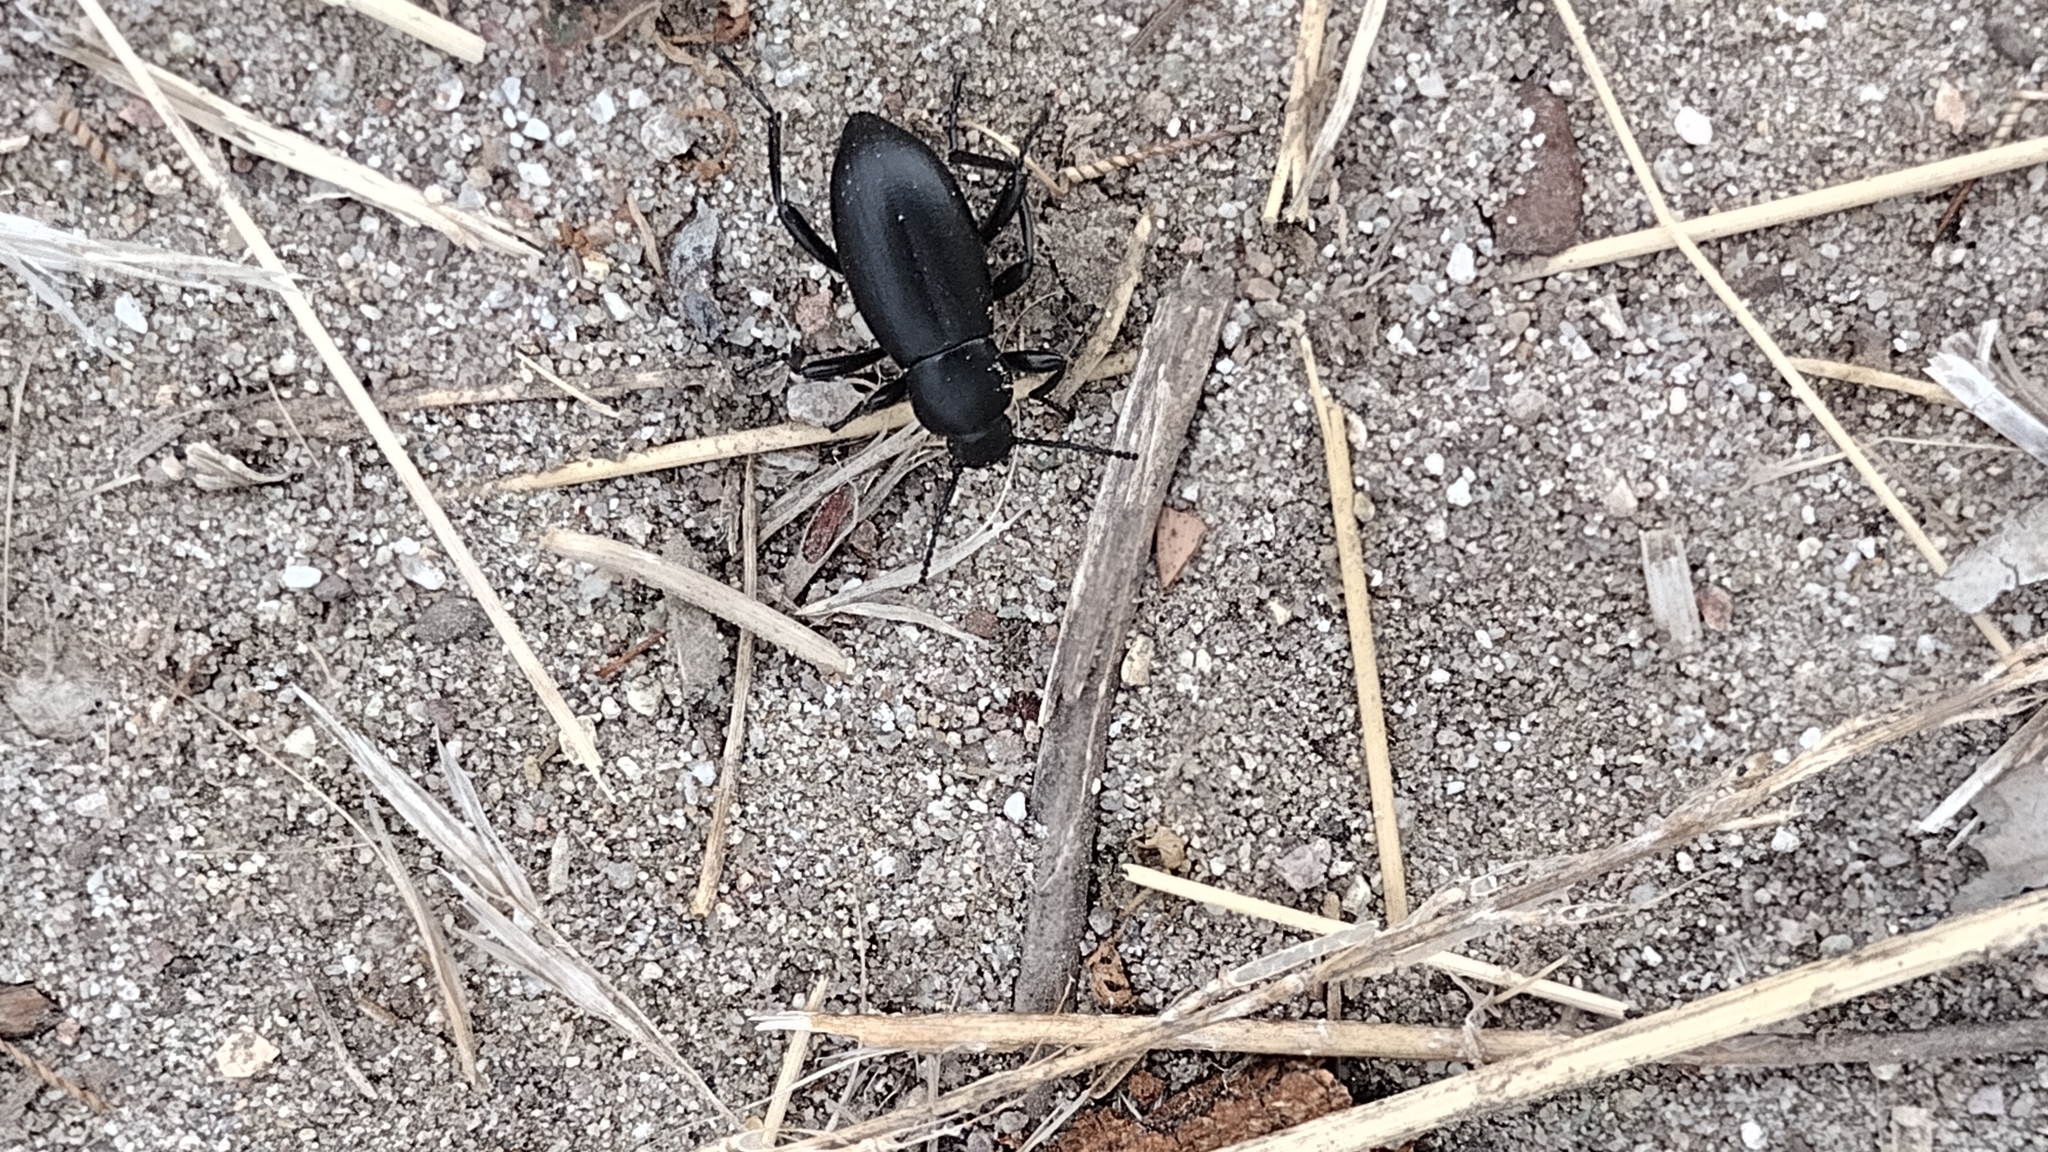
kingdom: Animalia
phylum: Arthropoda
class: Insecta
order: Coleoptera
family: Tenebrionidae
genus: Eleodes
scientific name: Eleodes carbonaria
